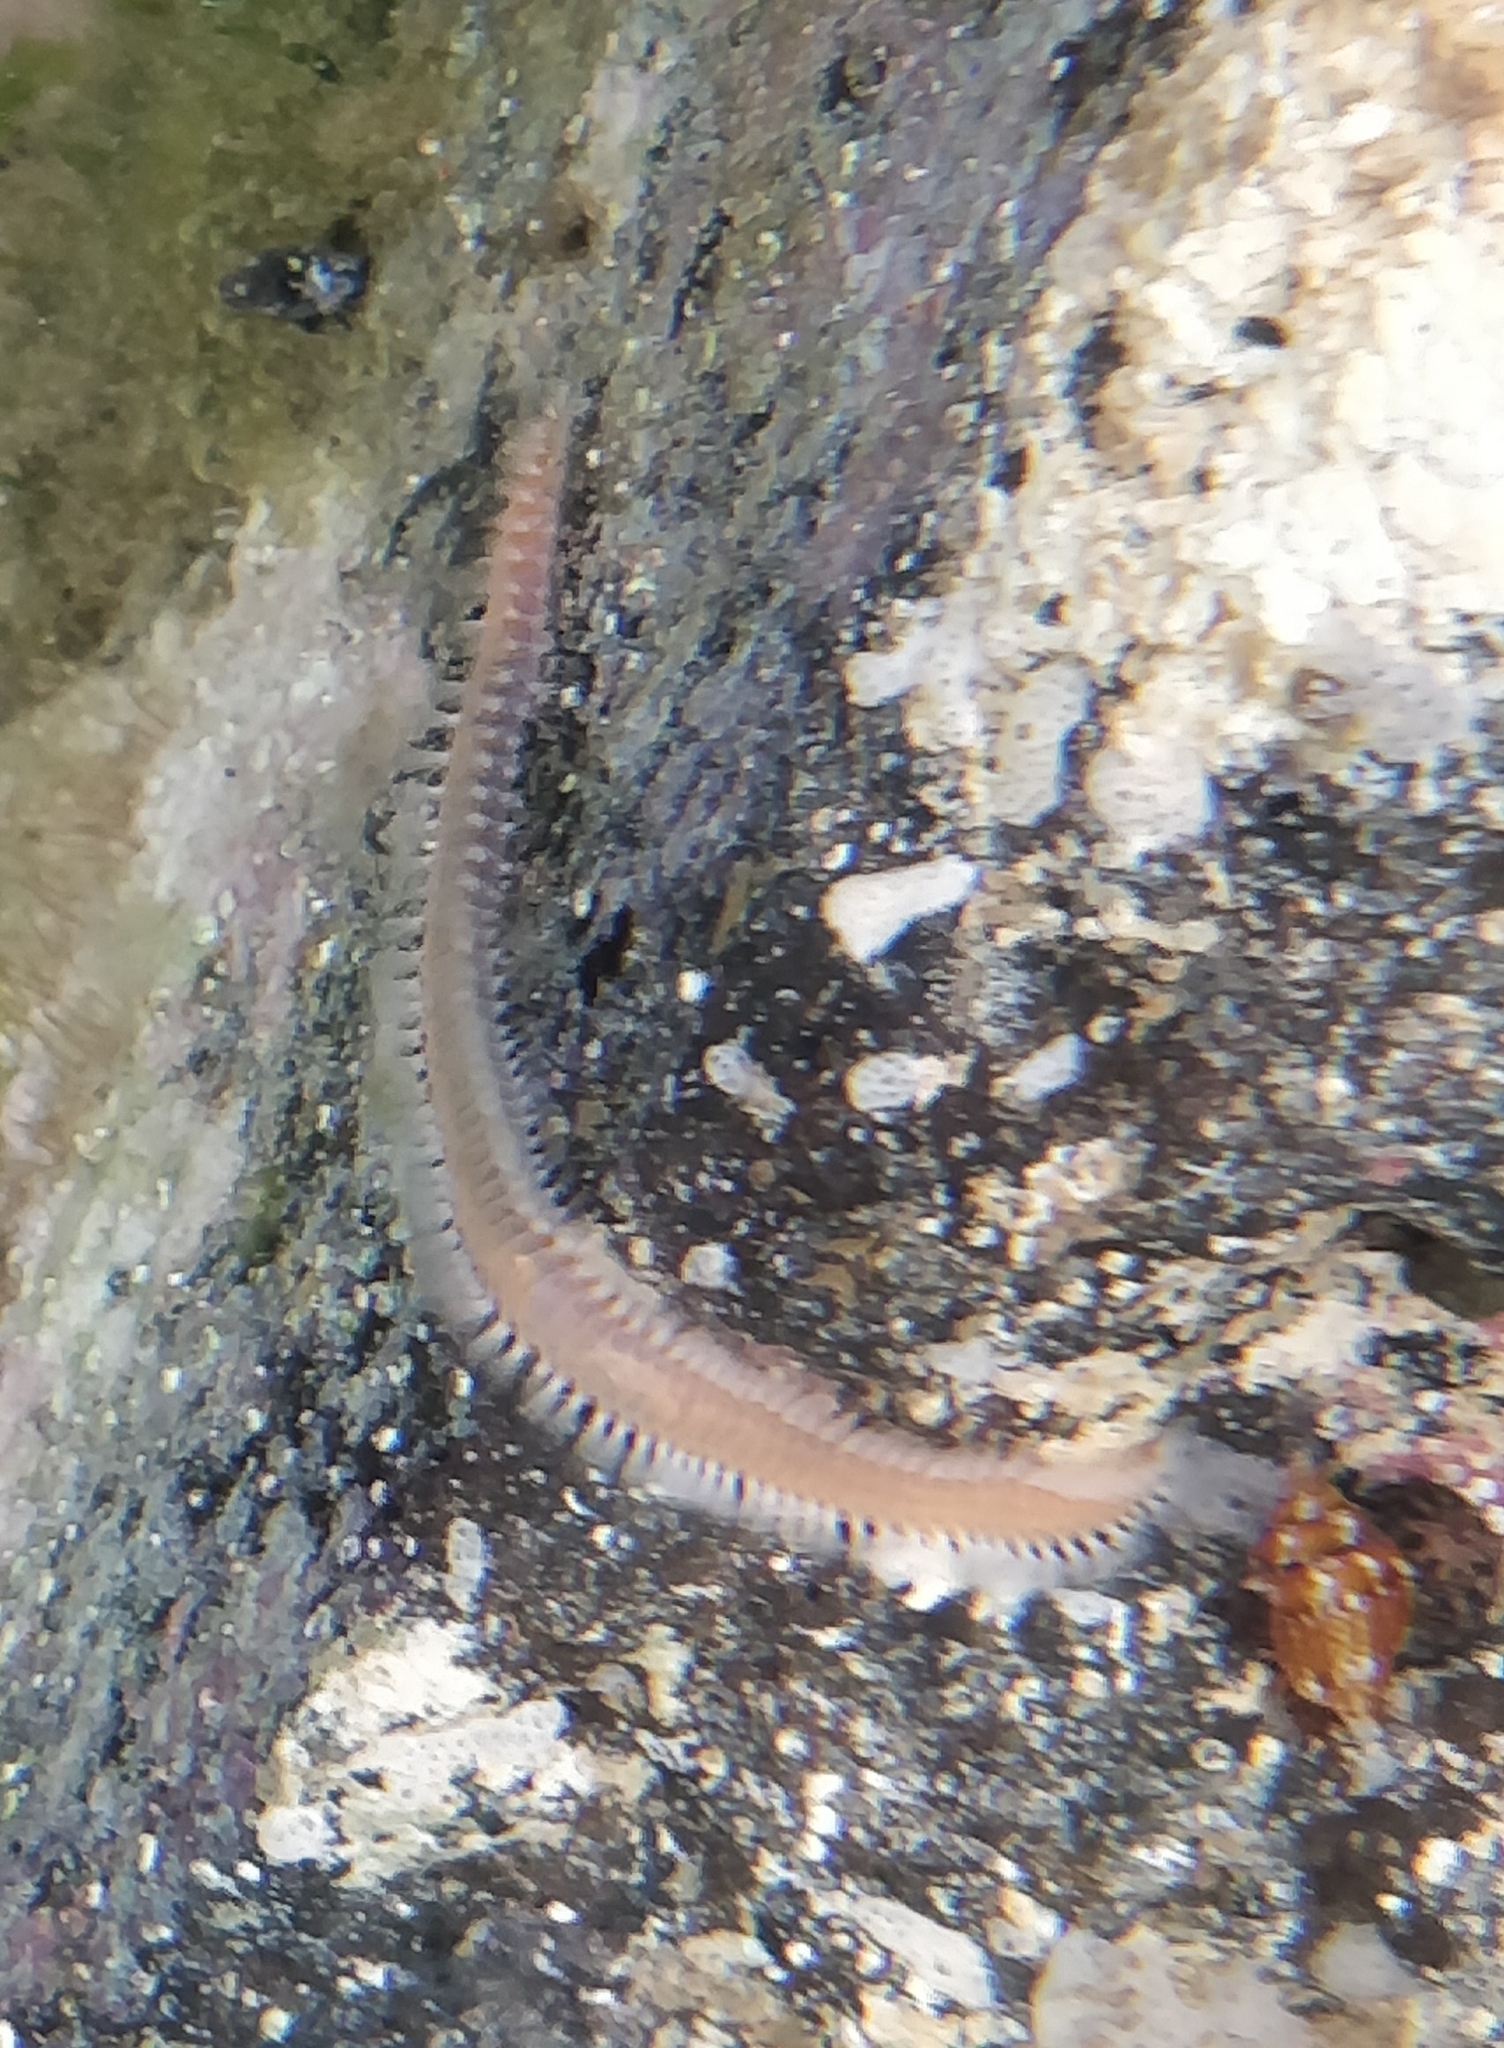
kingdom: Animalia
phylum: Annelida
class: Polychaeta
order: Amphinomida
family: Amphinomidae
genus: Eurythoe
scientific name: Eurythoe complanata
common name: Fireworm
